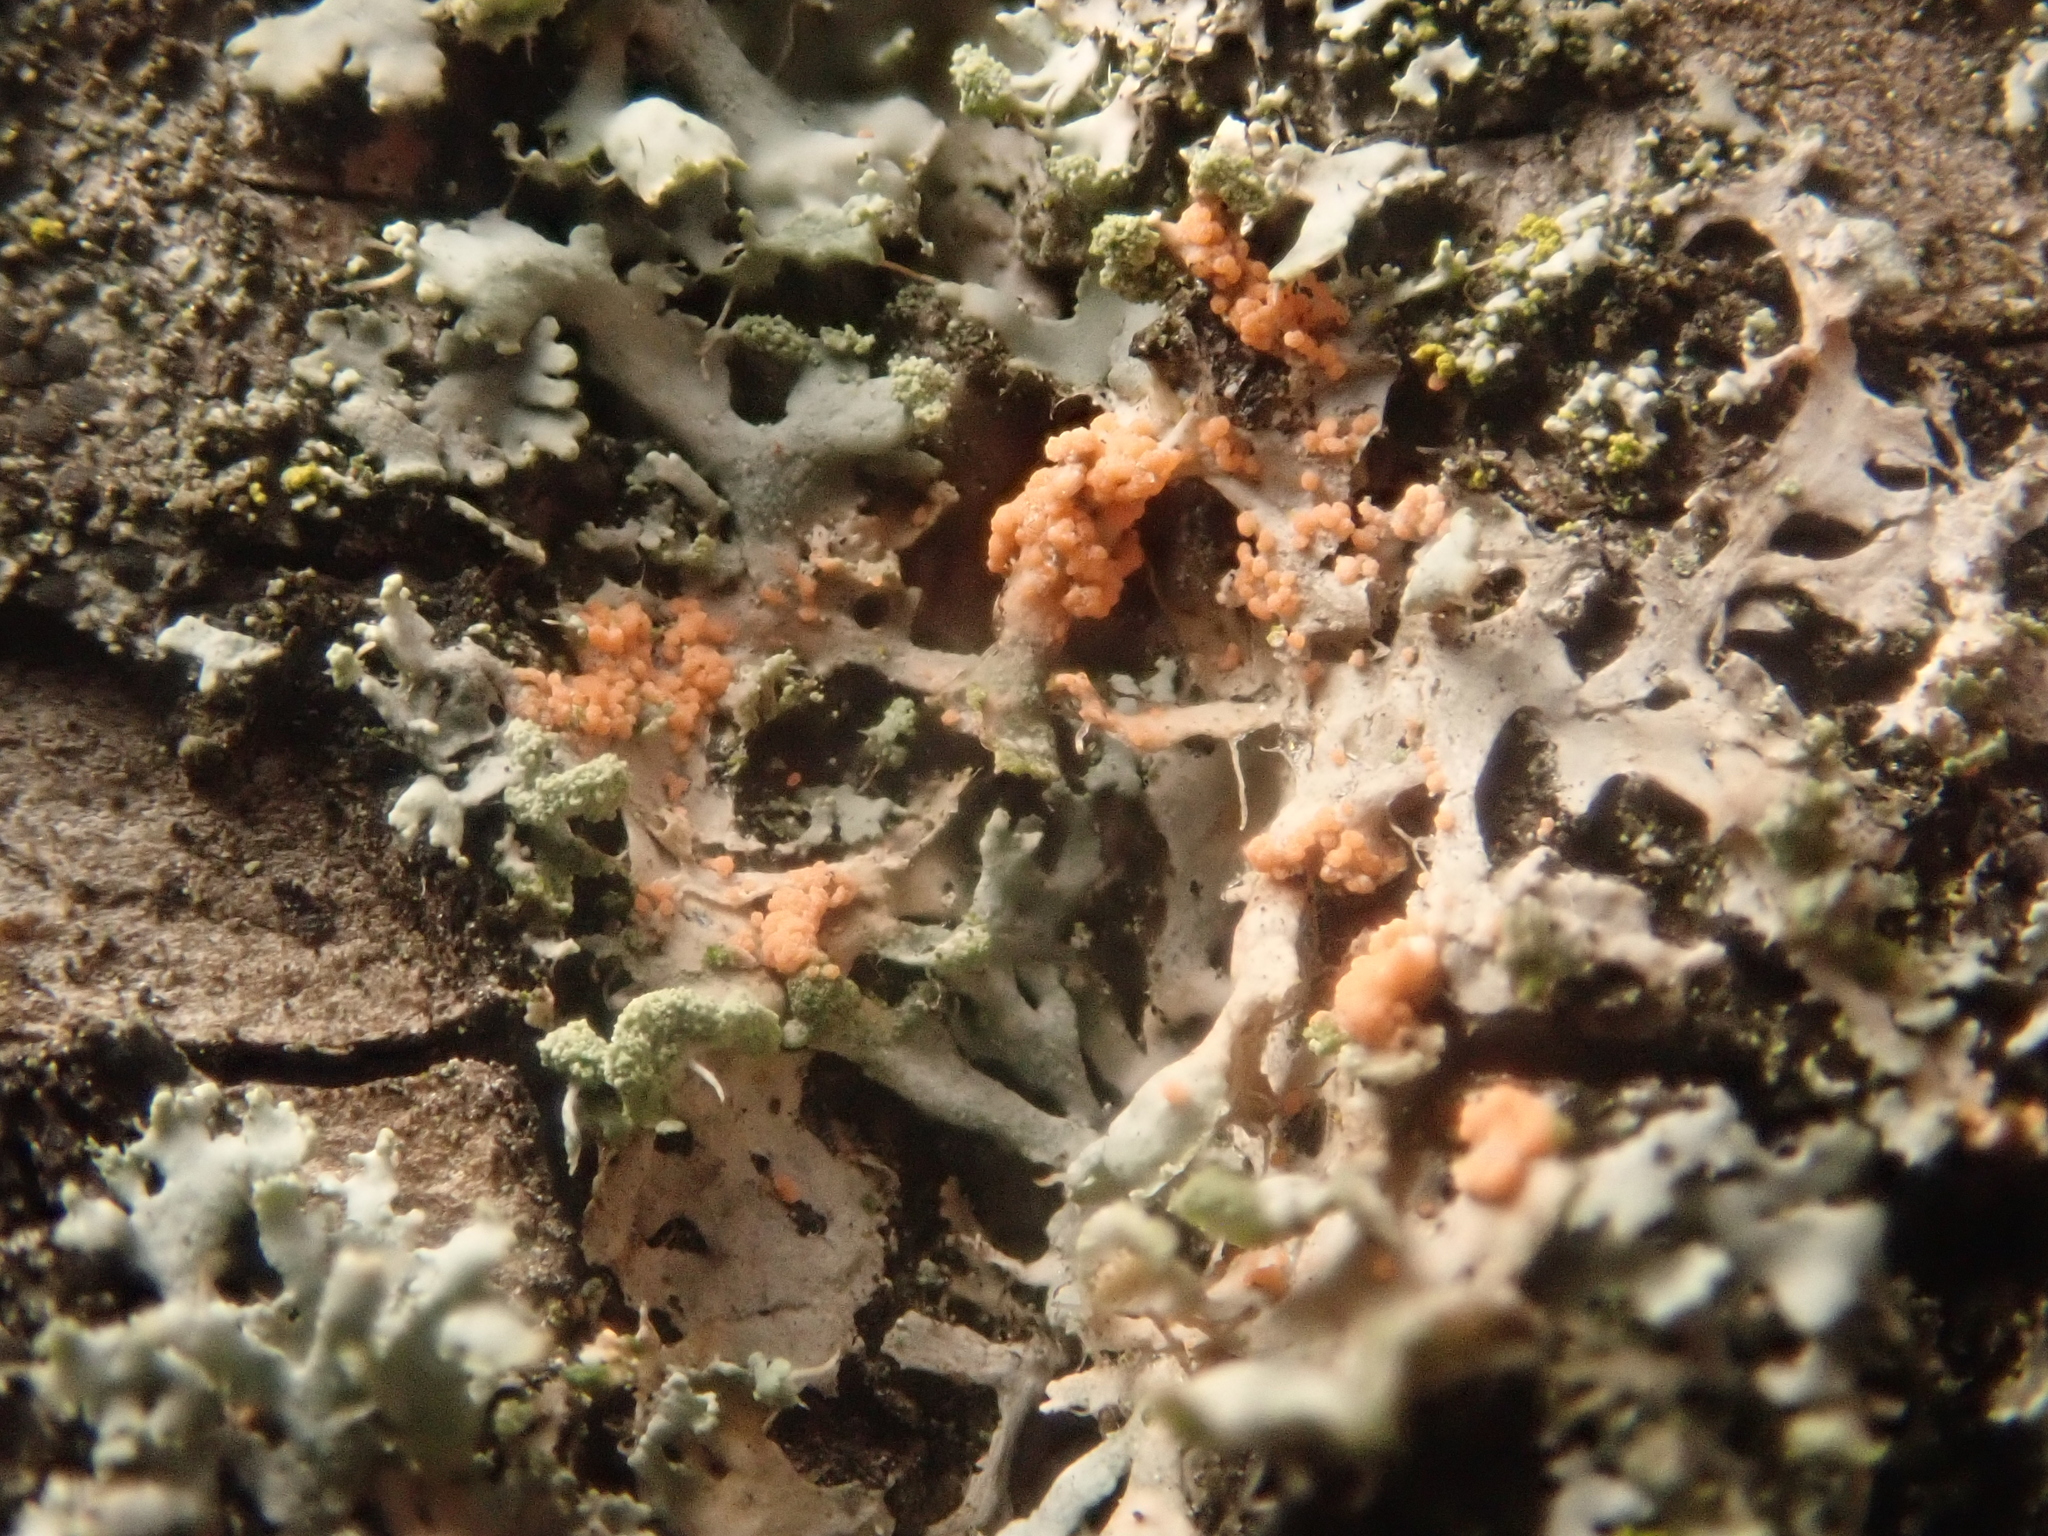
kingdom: Fungi
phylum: Basidiomycota
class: Agaricomycetes
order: Corticiales
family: Corticiaceae
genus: Erythricium
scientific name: Erythricium aurantiacum
